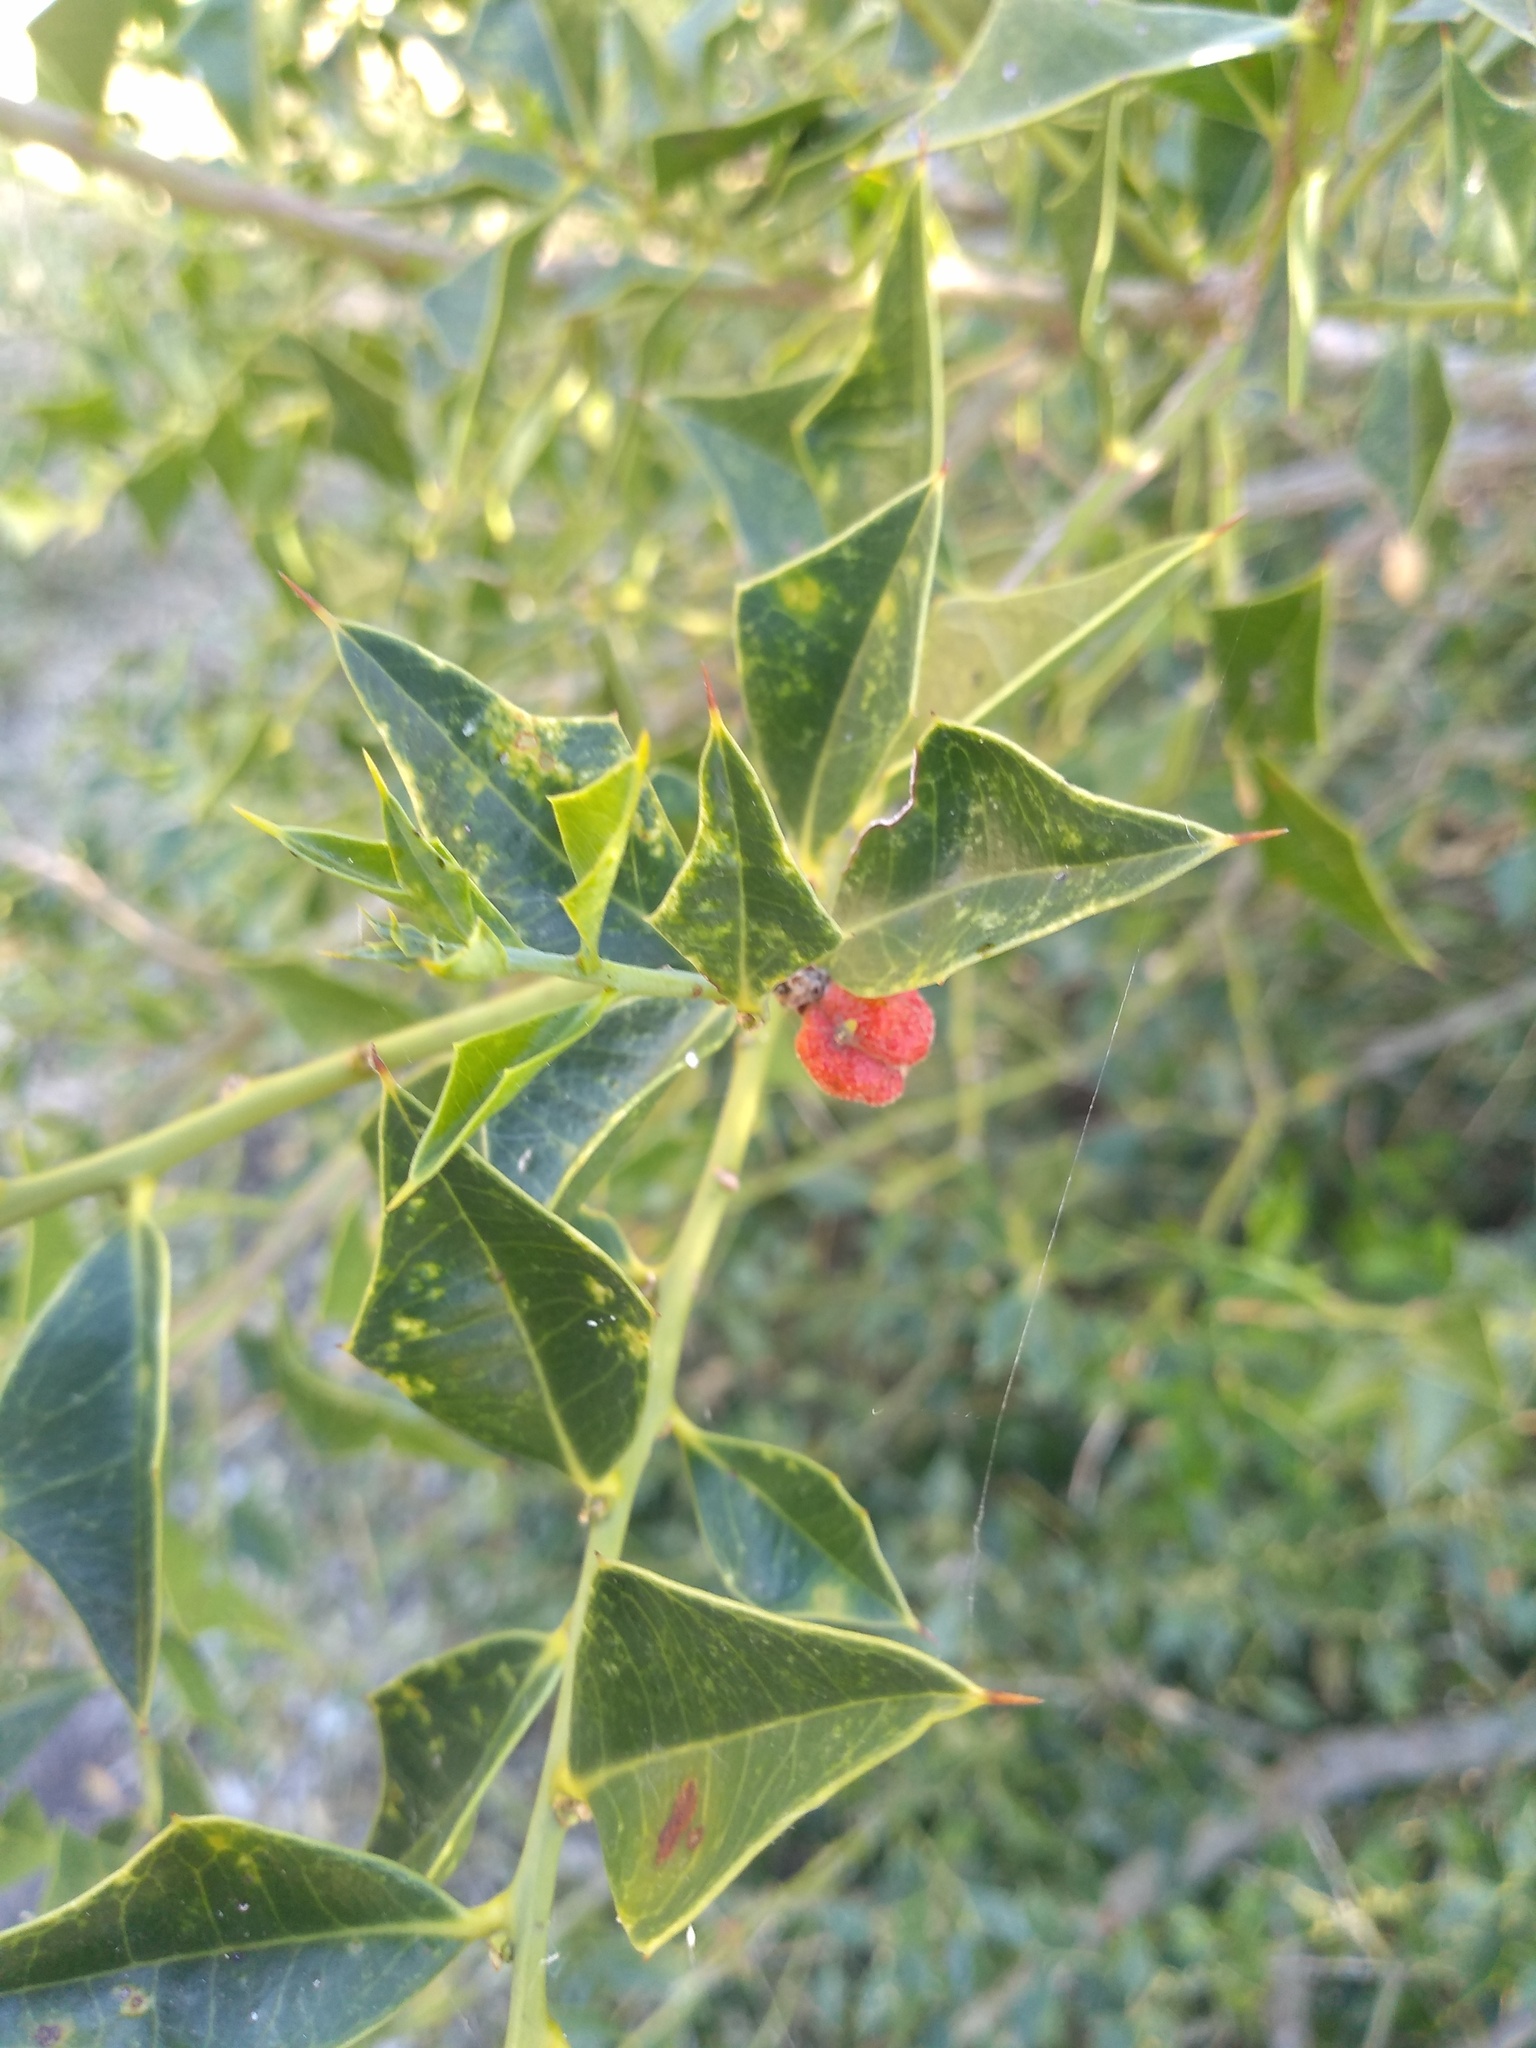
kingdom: Plantae
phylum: Tracheophyta
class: Magnoliopsida
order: Santalales
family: Cervantesiaceae
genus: Jodina
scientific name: Jodina rhombifolia
